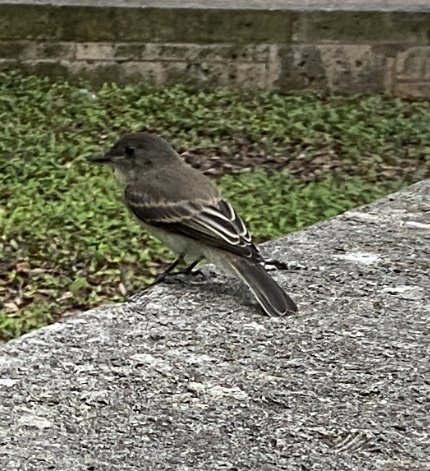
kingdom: Animalia
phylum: Chordata
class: Aves
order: Passeriformes
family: Tyrannidae
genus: Sayornis
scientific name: Sayornis phoebe
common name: Eastern phoebe
